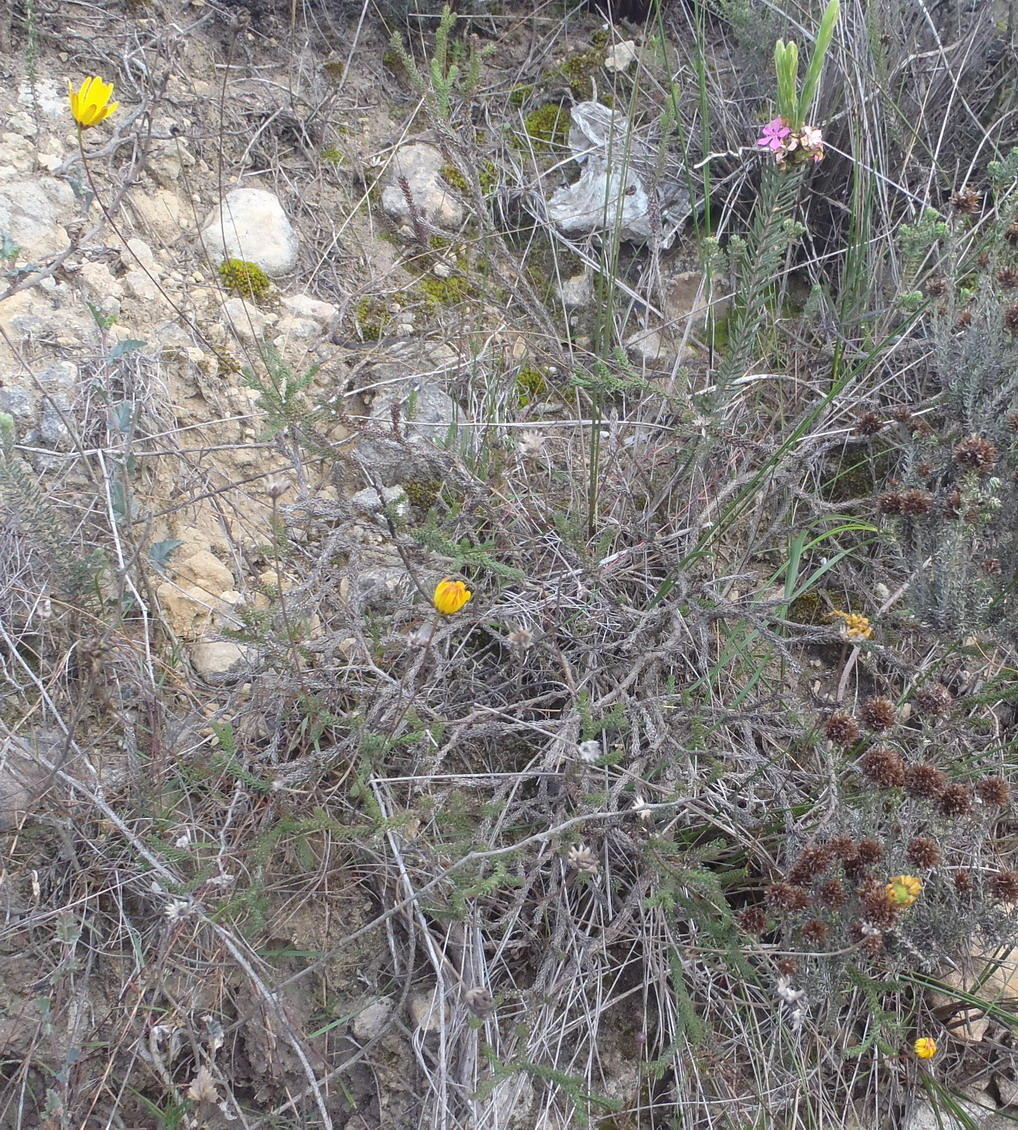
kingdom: Plantae
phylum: Tracheophyta
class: Magnoliopsida
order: Asterales
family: Asteraceae
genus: Euryops
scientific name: Euryops ericoides
